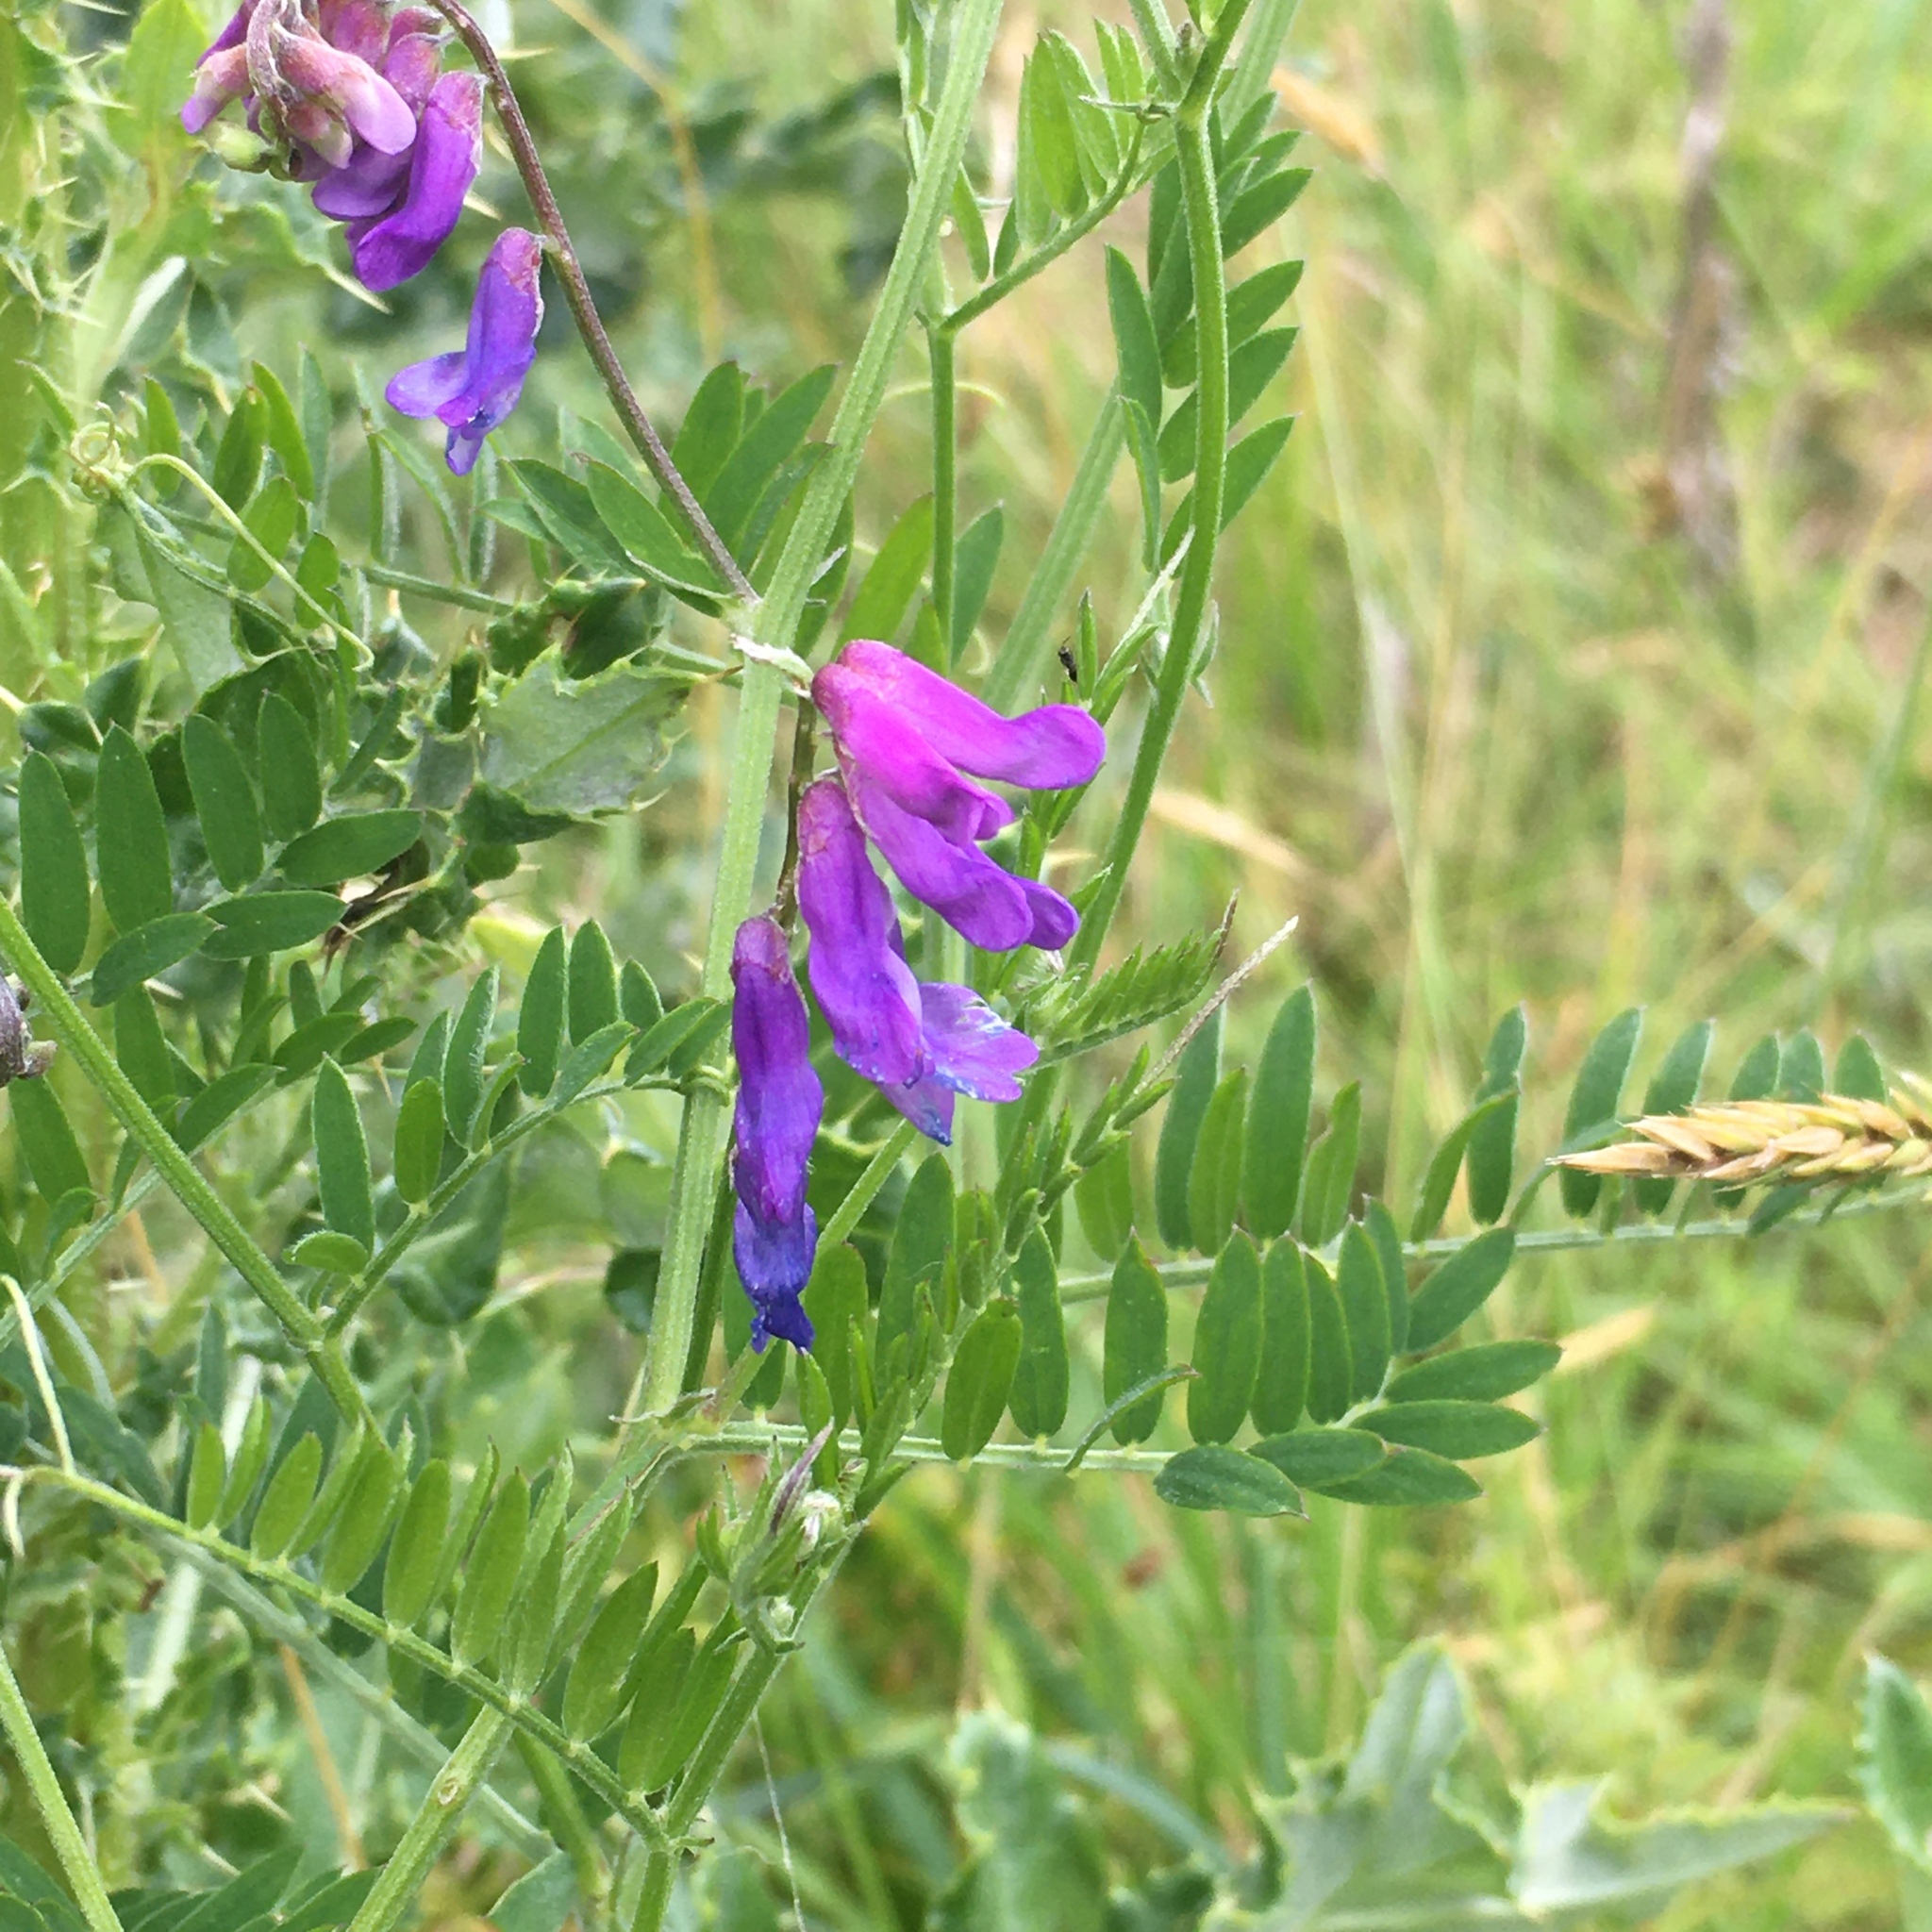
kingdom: Plantae
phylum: Tracheophyta
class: Magnoliopsida
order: Fabales
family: Fabaceae
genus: Vicia
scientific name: Vicia cracca
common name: Bird vetch
